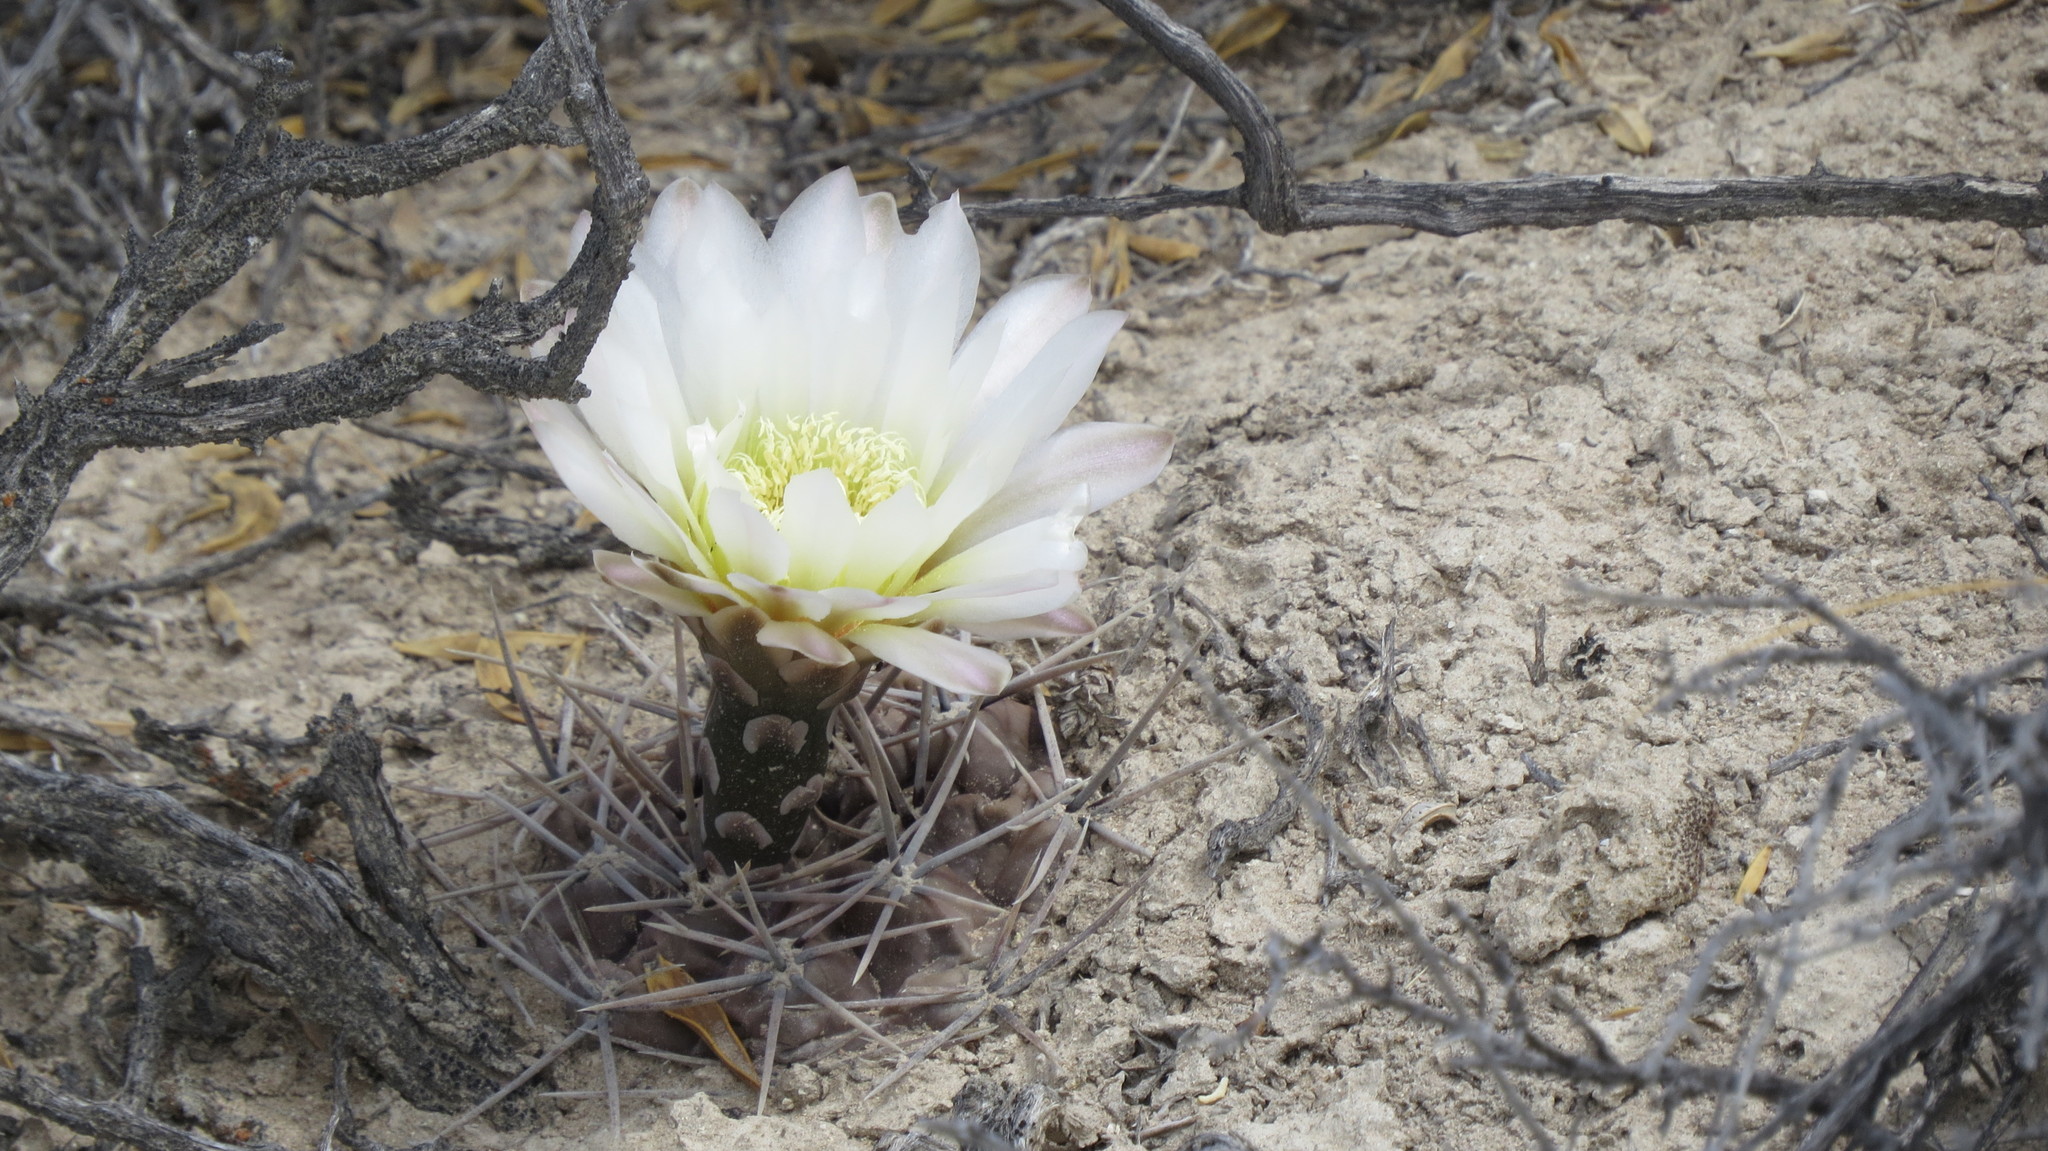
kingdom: Plantae
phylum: Tracheophyta
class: Magnoliopsida
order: Caryophyllales
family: Cactaceae
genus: Gymnocalycium
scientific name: Gymnocalycium gibbosum
